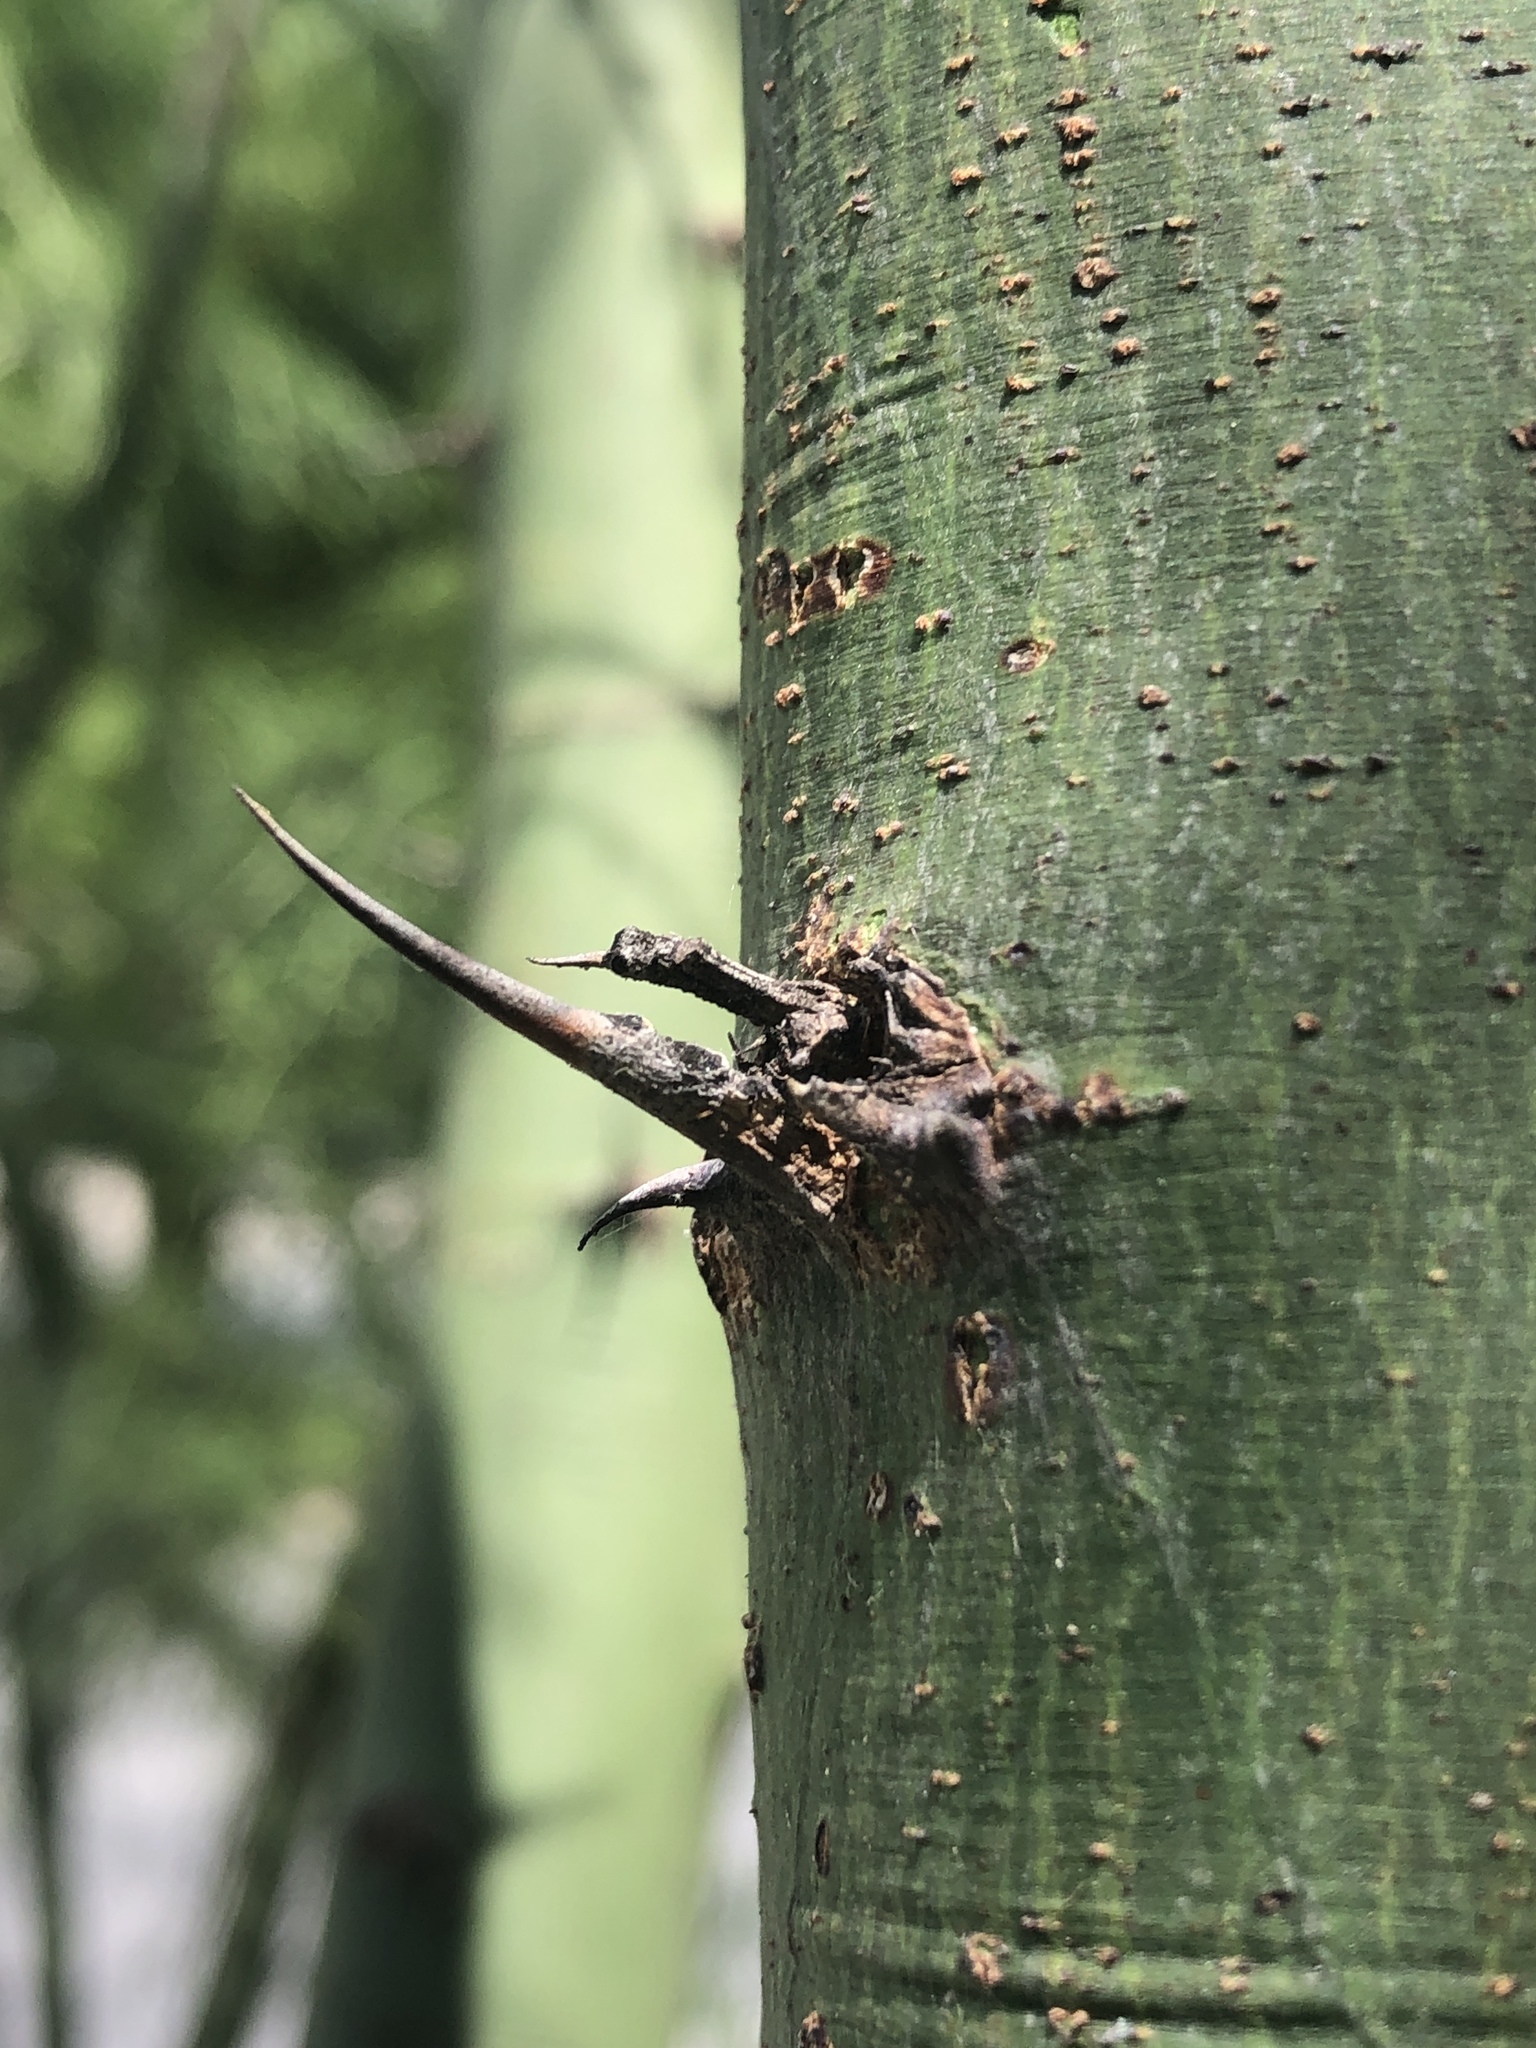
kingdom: Plantae
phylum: Tracheophyta
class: Magnoliopsida
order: Fabales
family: Fabaceae
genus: Parkinsonia
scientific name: Parkinsonia aculeata
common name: Jerusalem thorn
